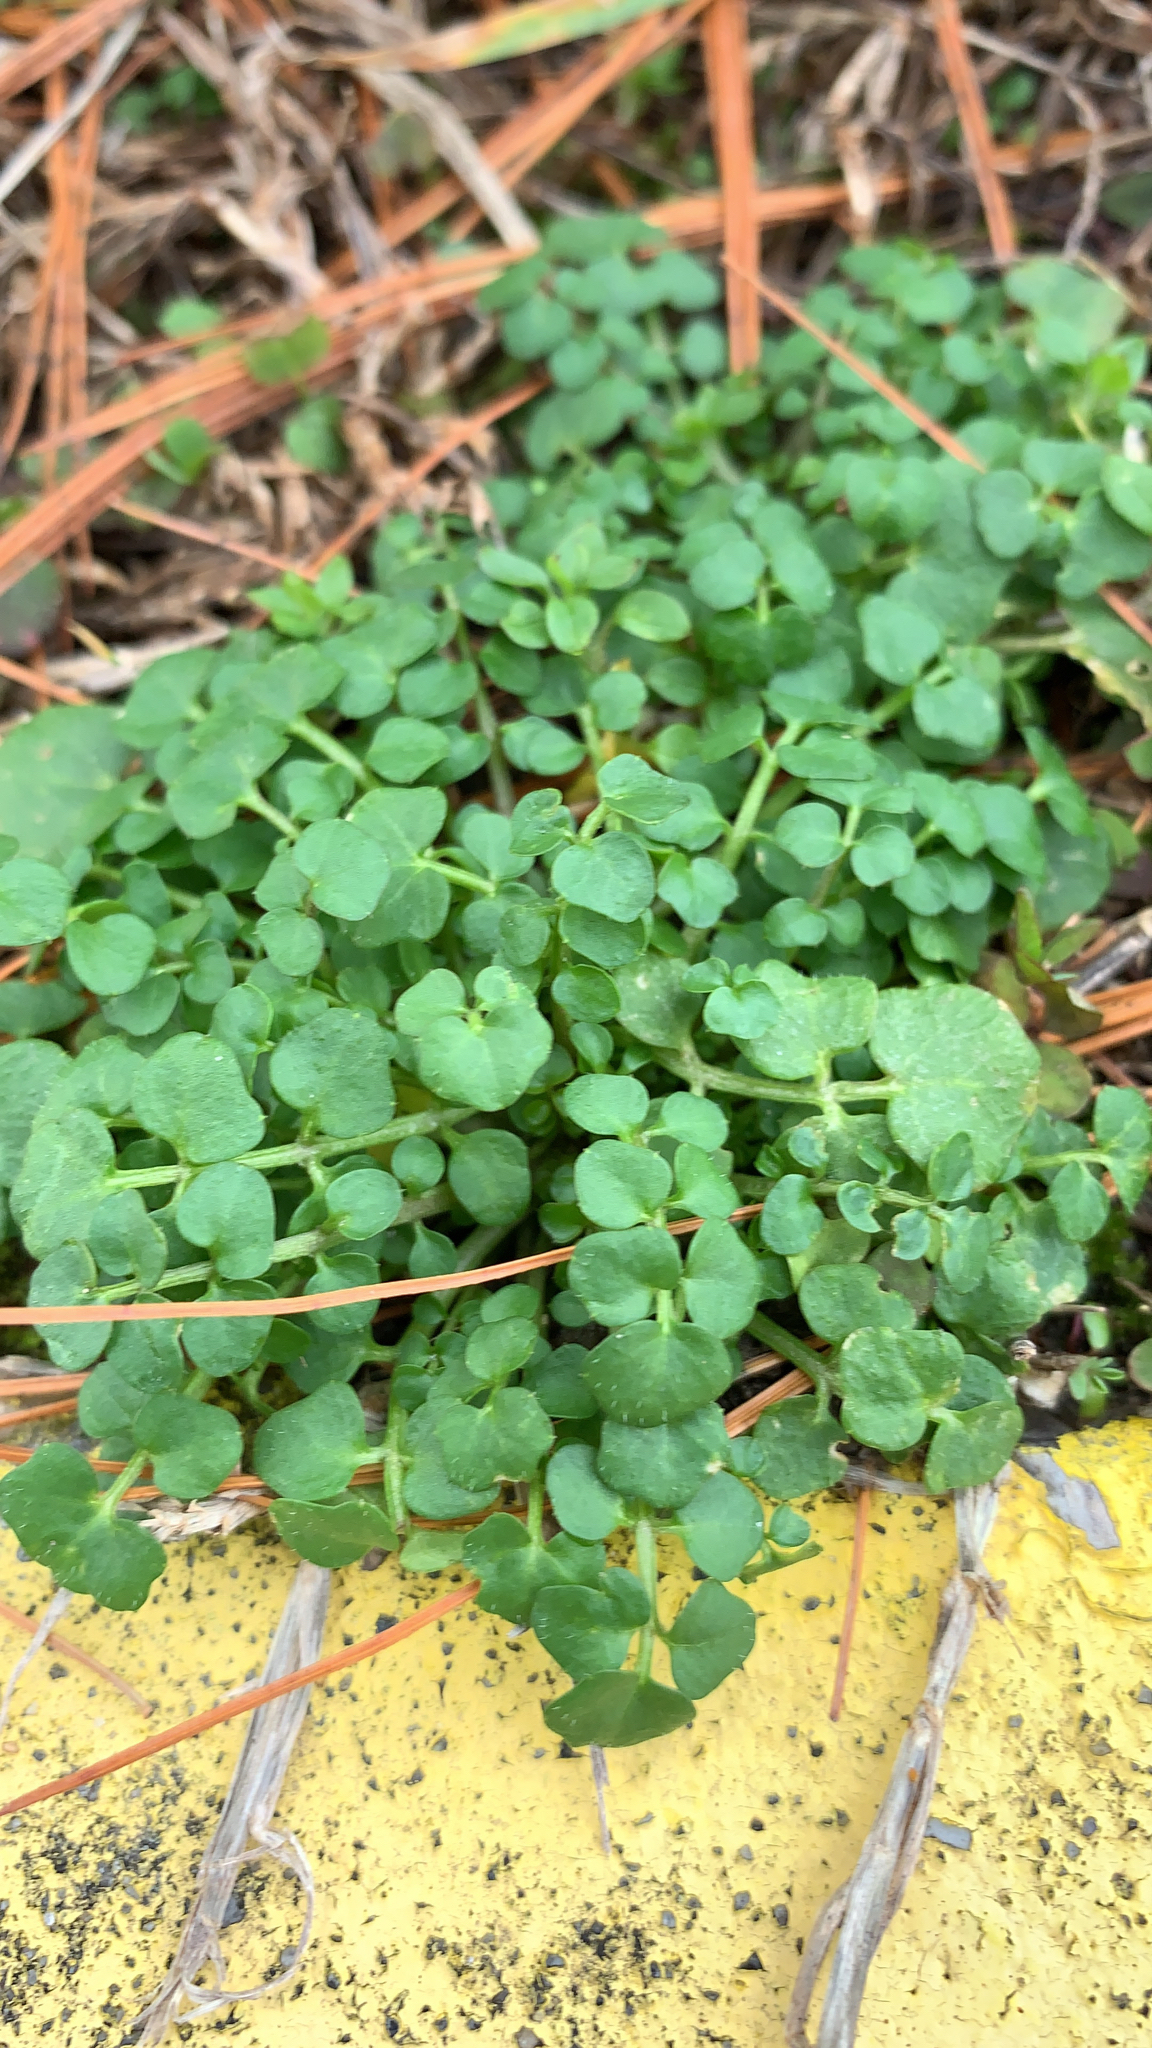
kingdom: Plantae
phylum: Tracheophyta
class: Magnoliopsida
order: Brassicales
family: Brassicaceae
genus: Cardamine
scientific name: Cardamine hirsuta
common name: Hairy bittercress
